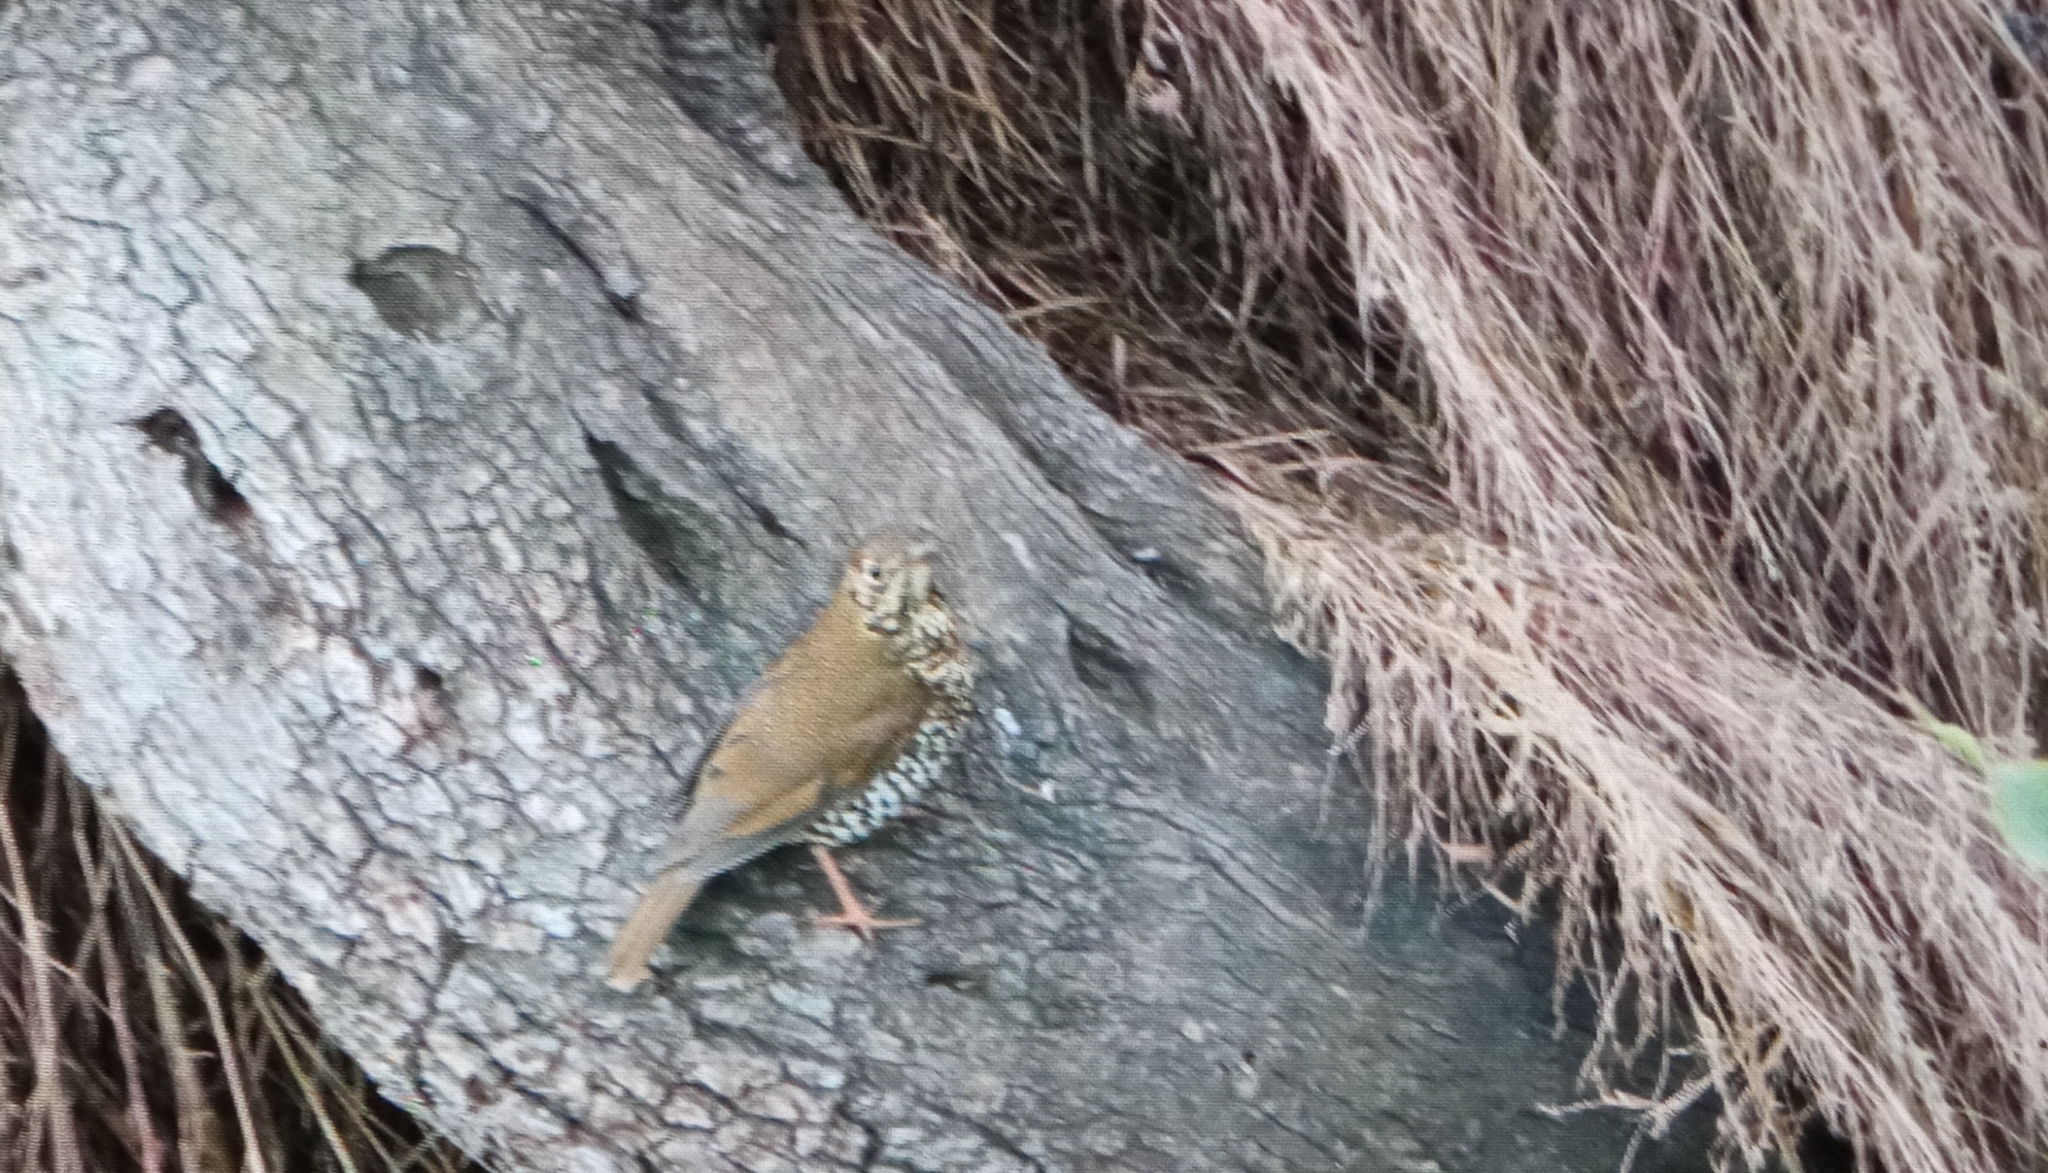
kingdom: Animalia
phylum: Chordata
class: Aves
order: Passeriformes
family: Turdidae
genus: Zoothera
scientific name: Zoothera mollissima
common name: Plain-backed thrush
